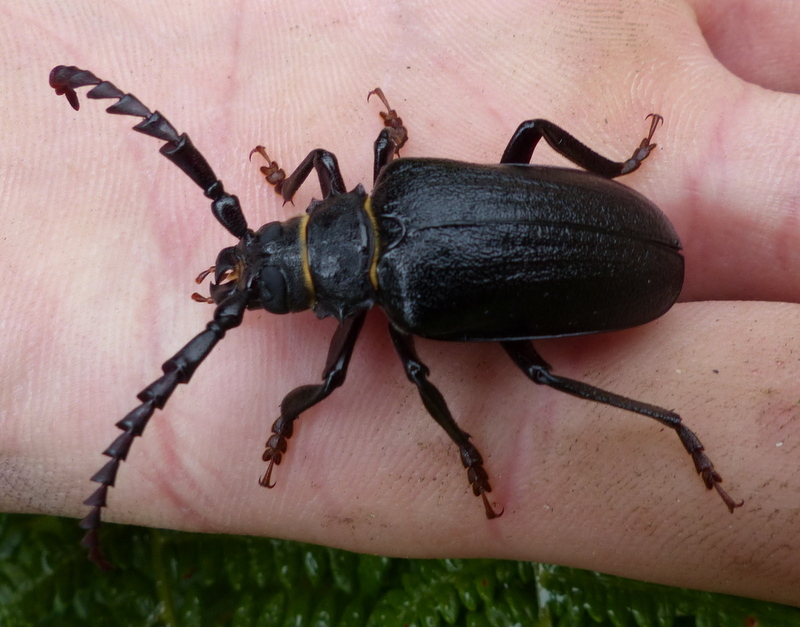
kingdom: Animalia
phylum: Arthropoda
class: Insecta
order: Coleoptera
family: Cerambycidae
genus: Prionus
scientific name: Prionus coriarius
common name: Tanner beetle
